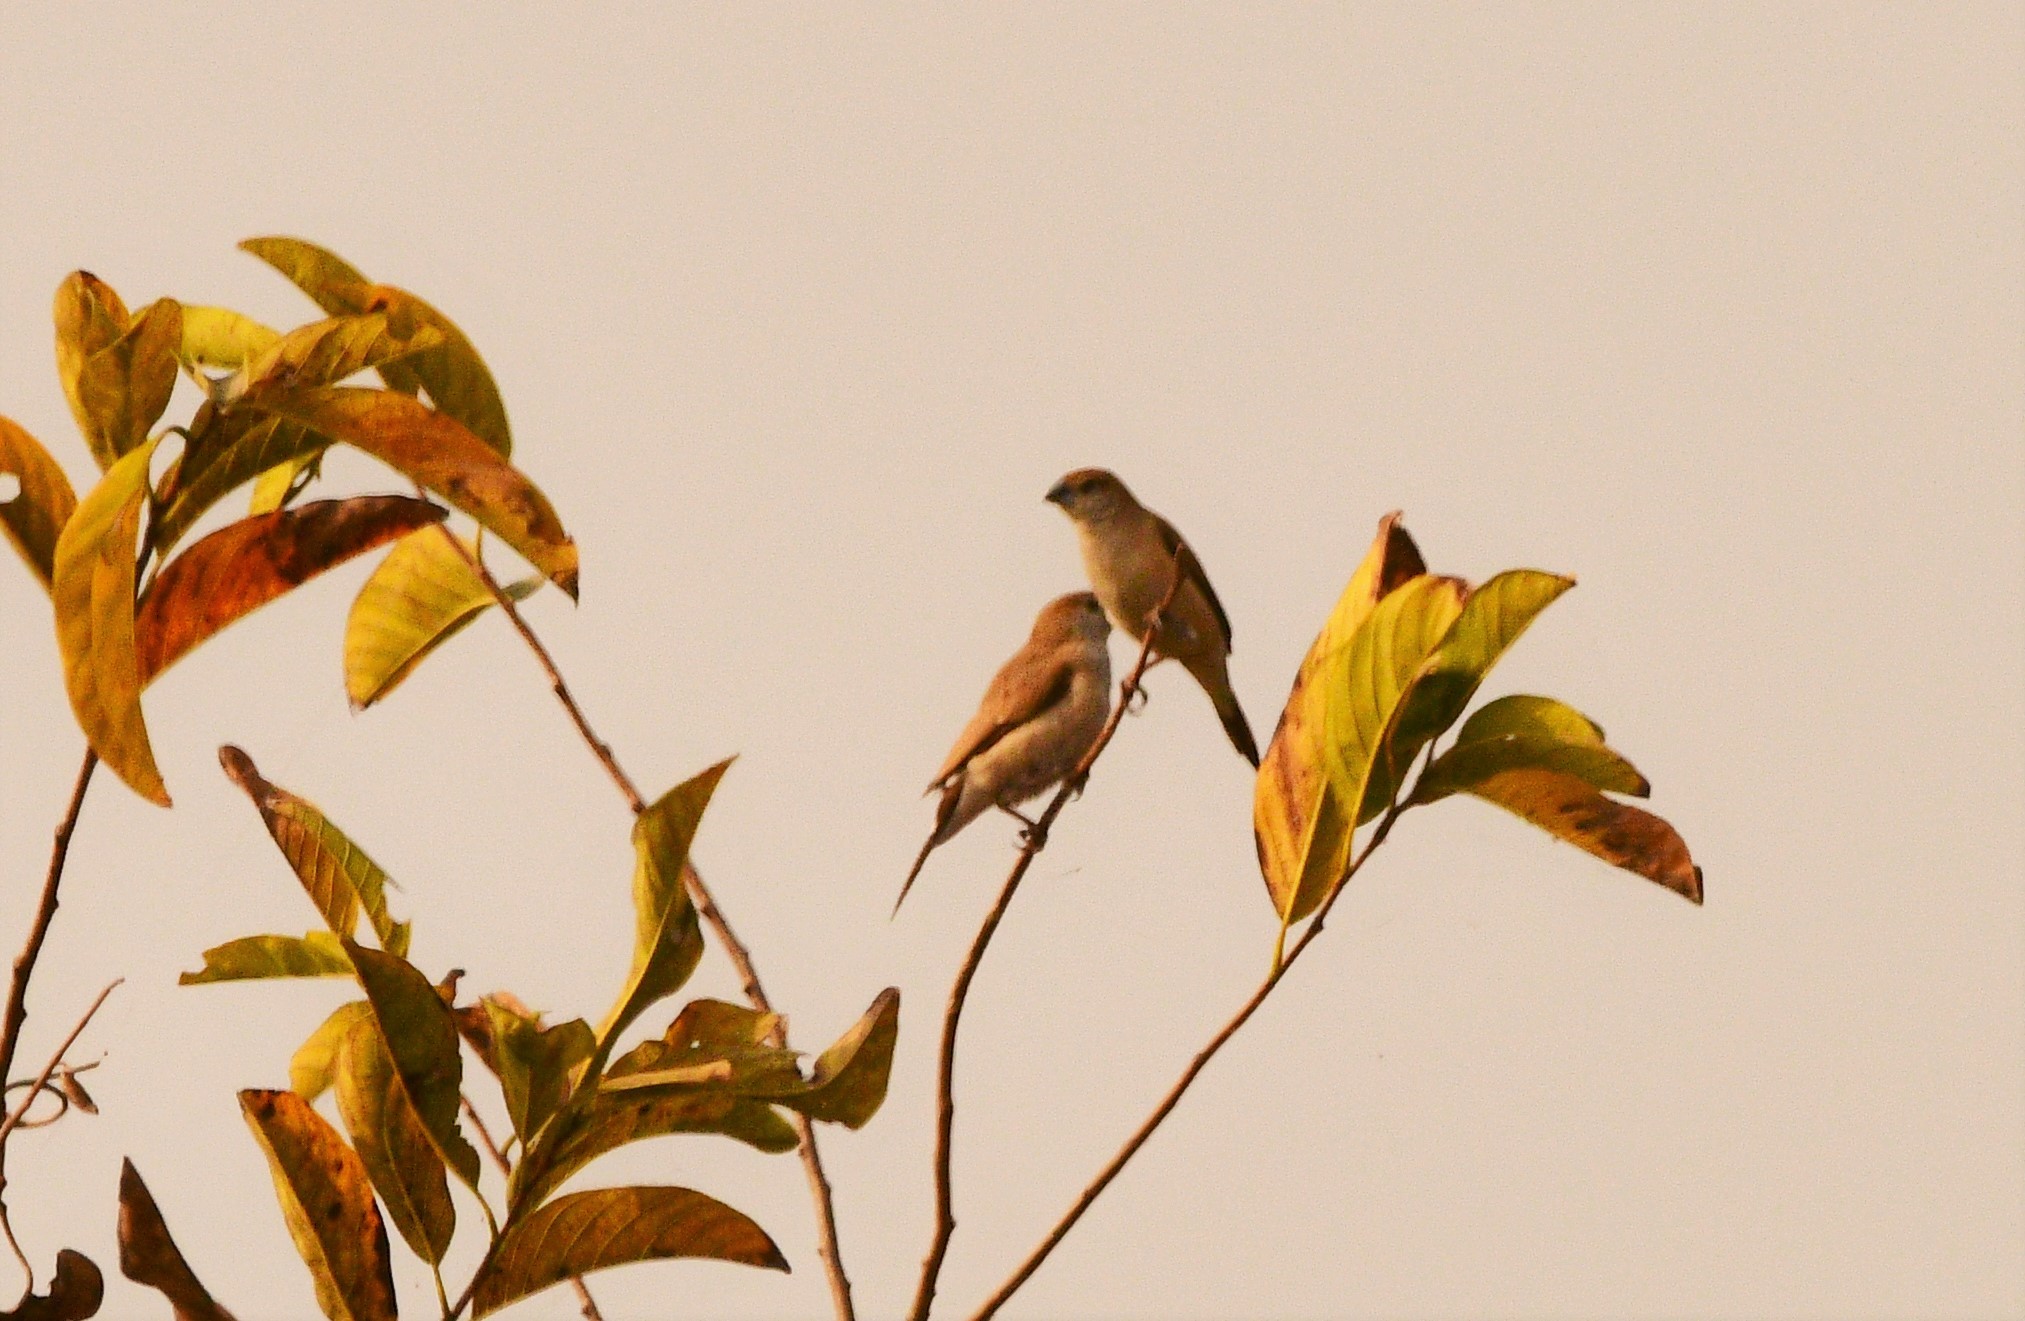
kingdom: Animalia
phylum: Chordata
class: Aves
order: Passeriformes
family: Estrildidae
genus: Euodice
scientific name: Euodice malabarica
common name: Indian silverbill
